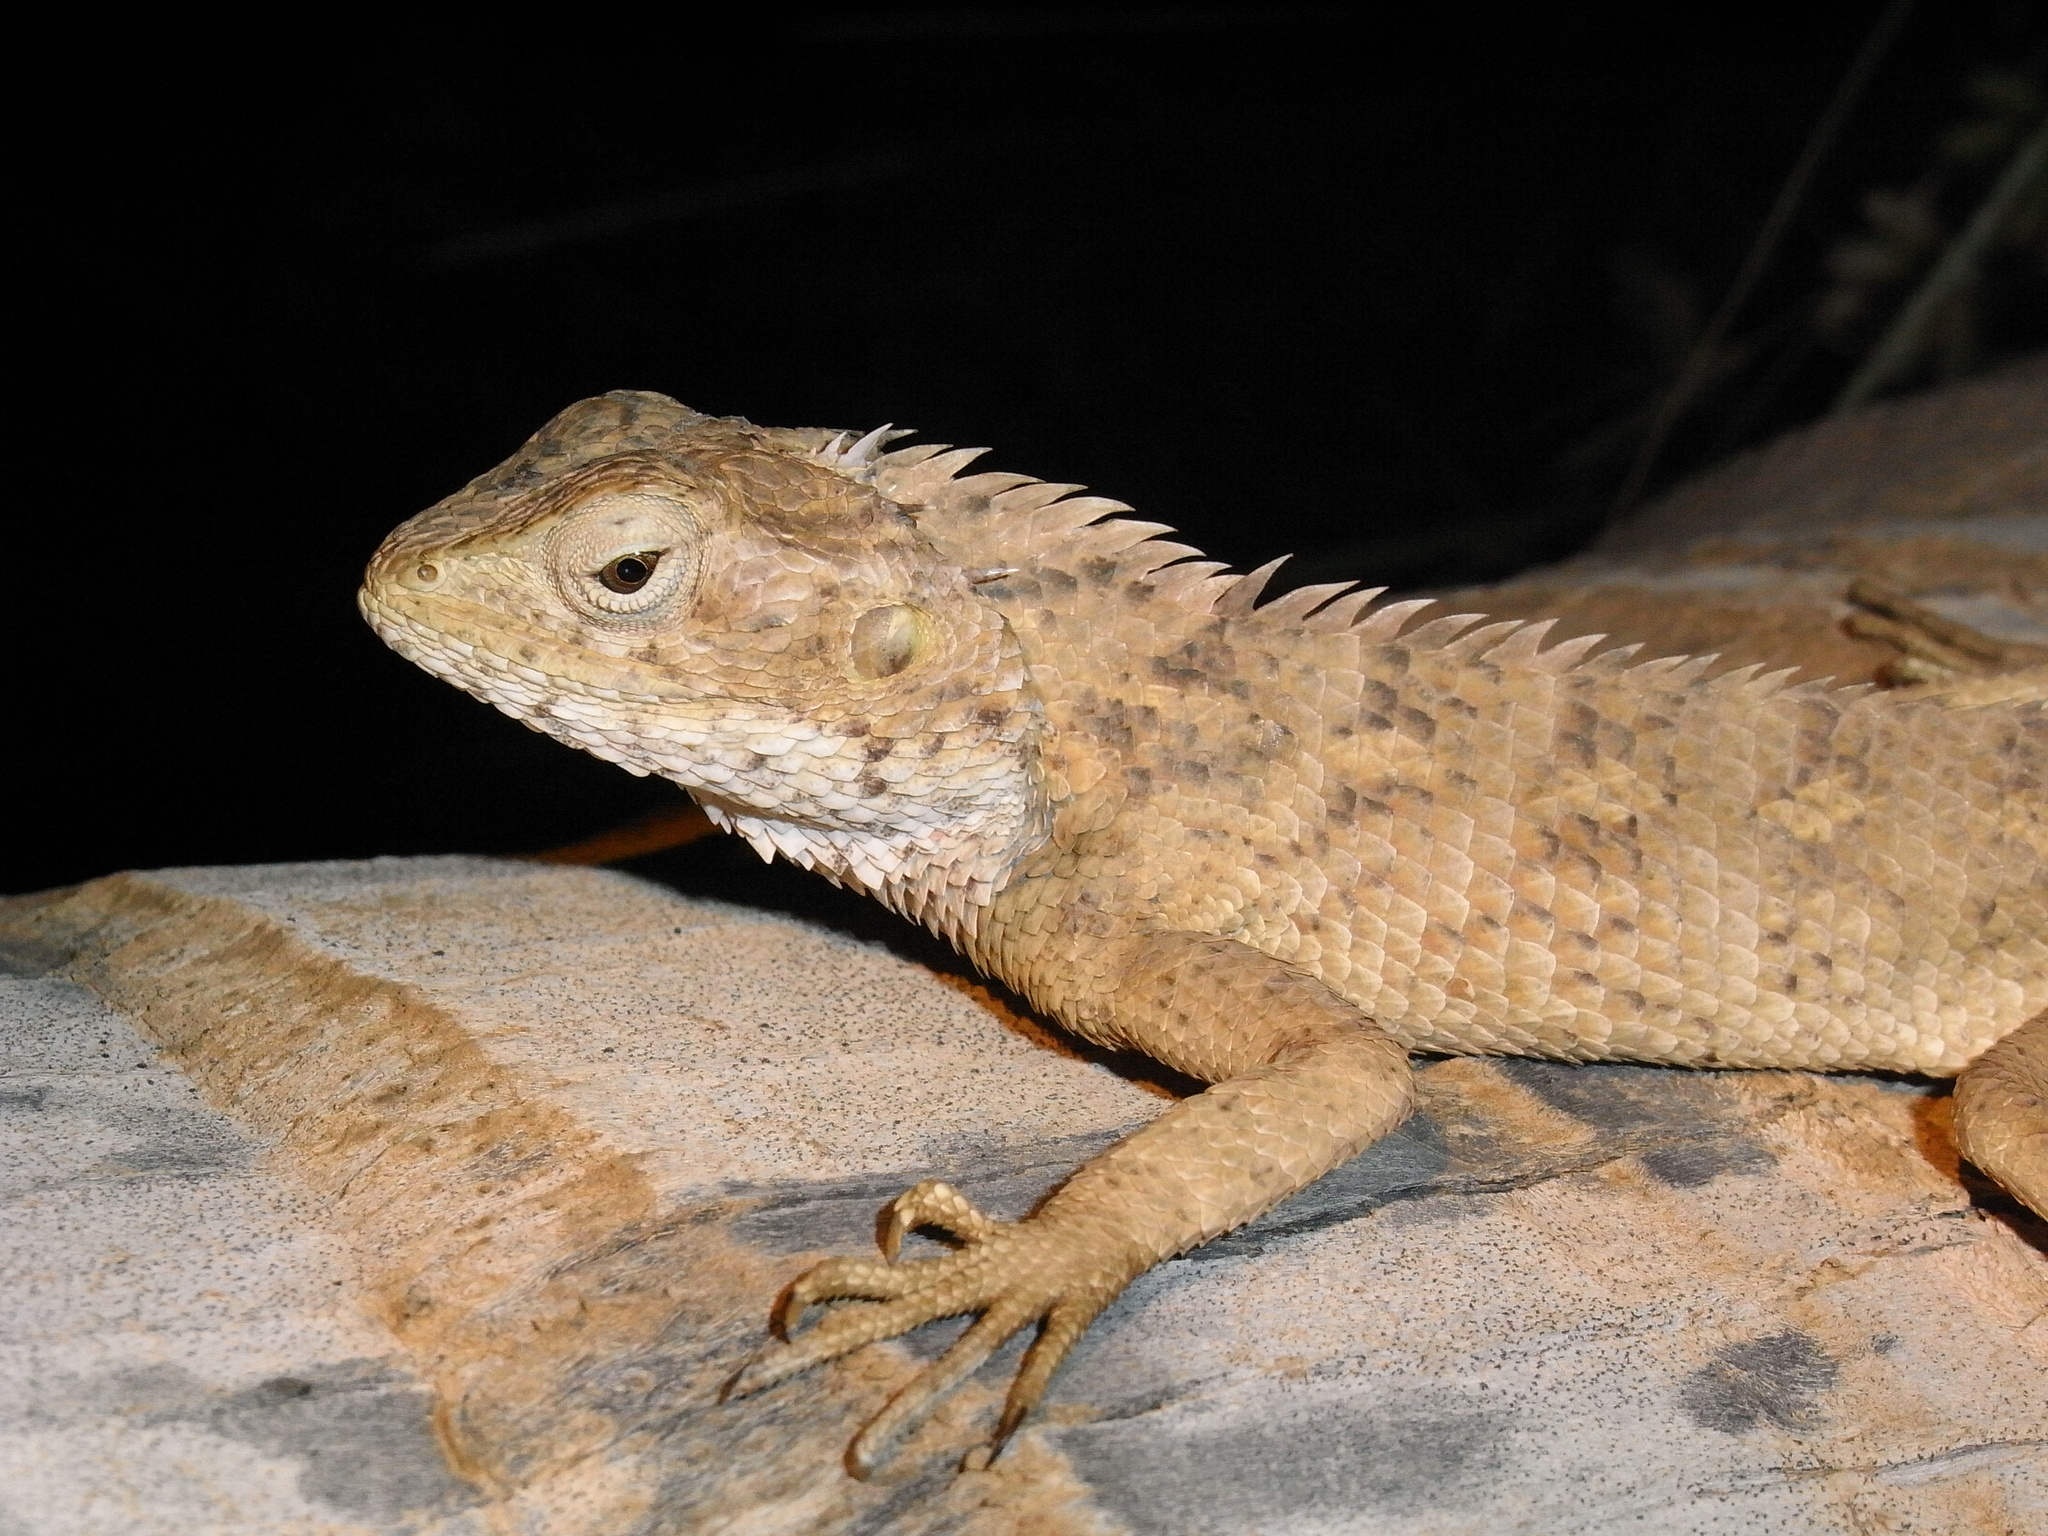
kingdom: Animalia
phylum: Chordata
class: Squamata
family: Agamidae
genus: Calotes
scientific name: Calotes versicolor
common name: Oriental garden lizard
